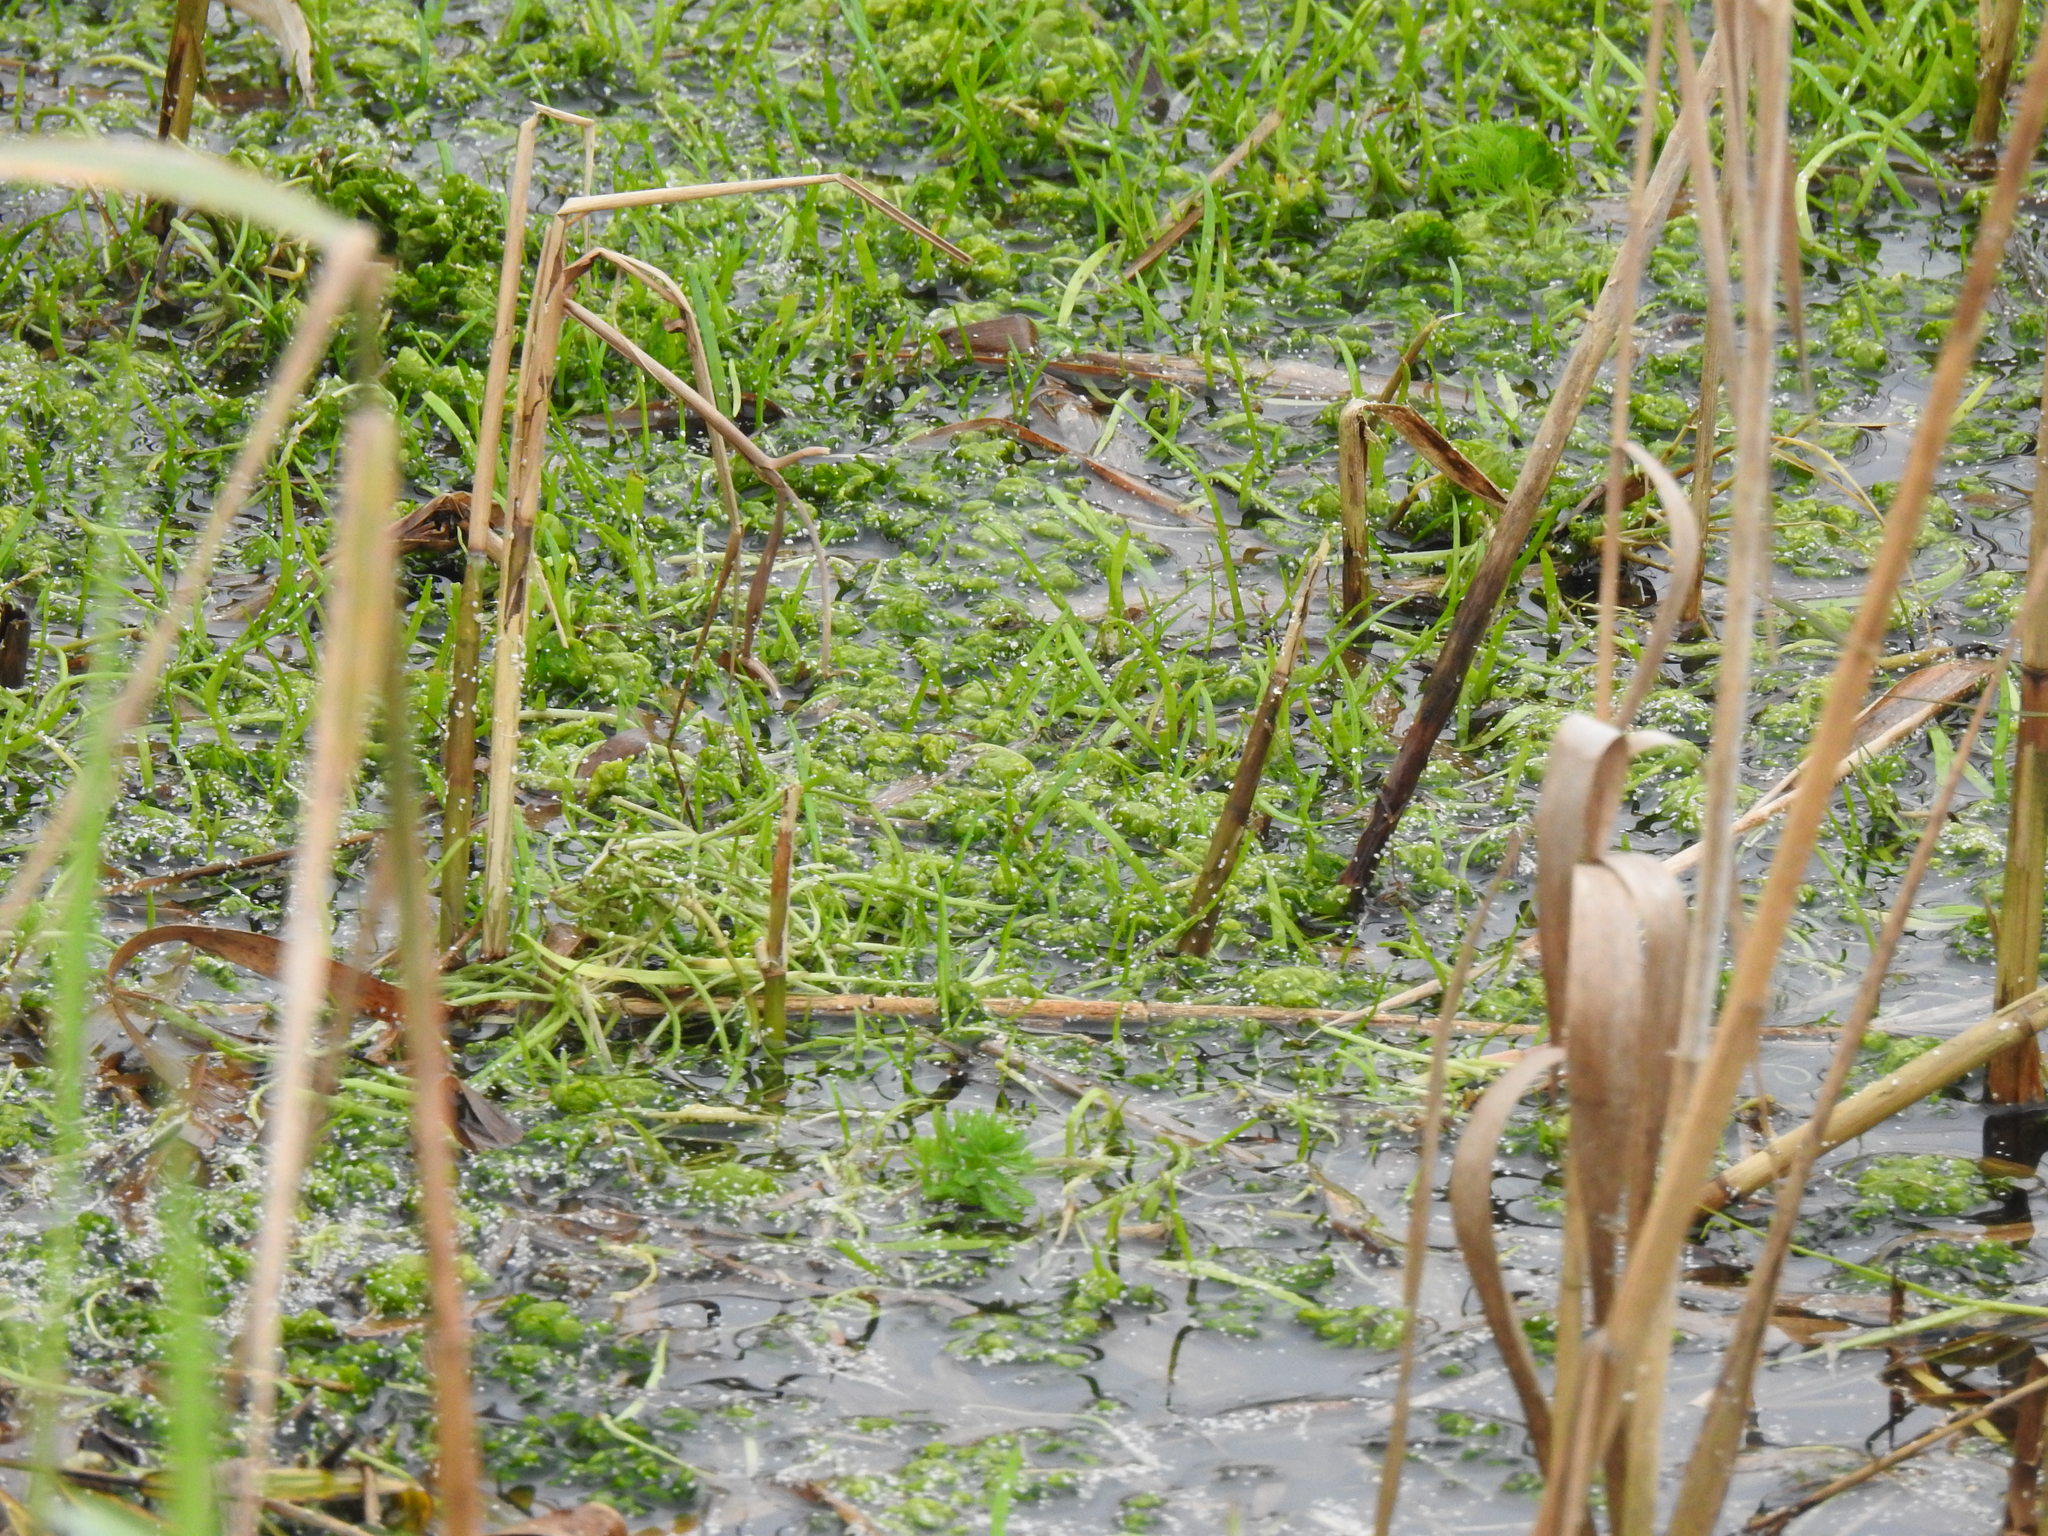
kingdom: Plantae
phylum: Tracheophyta
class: Magnoliopsida
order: Saxifragales
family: Haloragaceae
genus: Myriophyllum
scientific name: Myriophyllum aquaticum
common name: Parrot's feather
